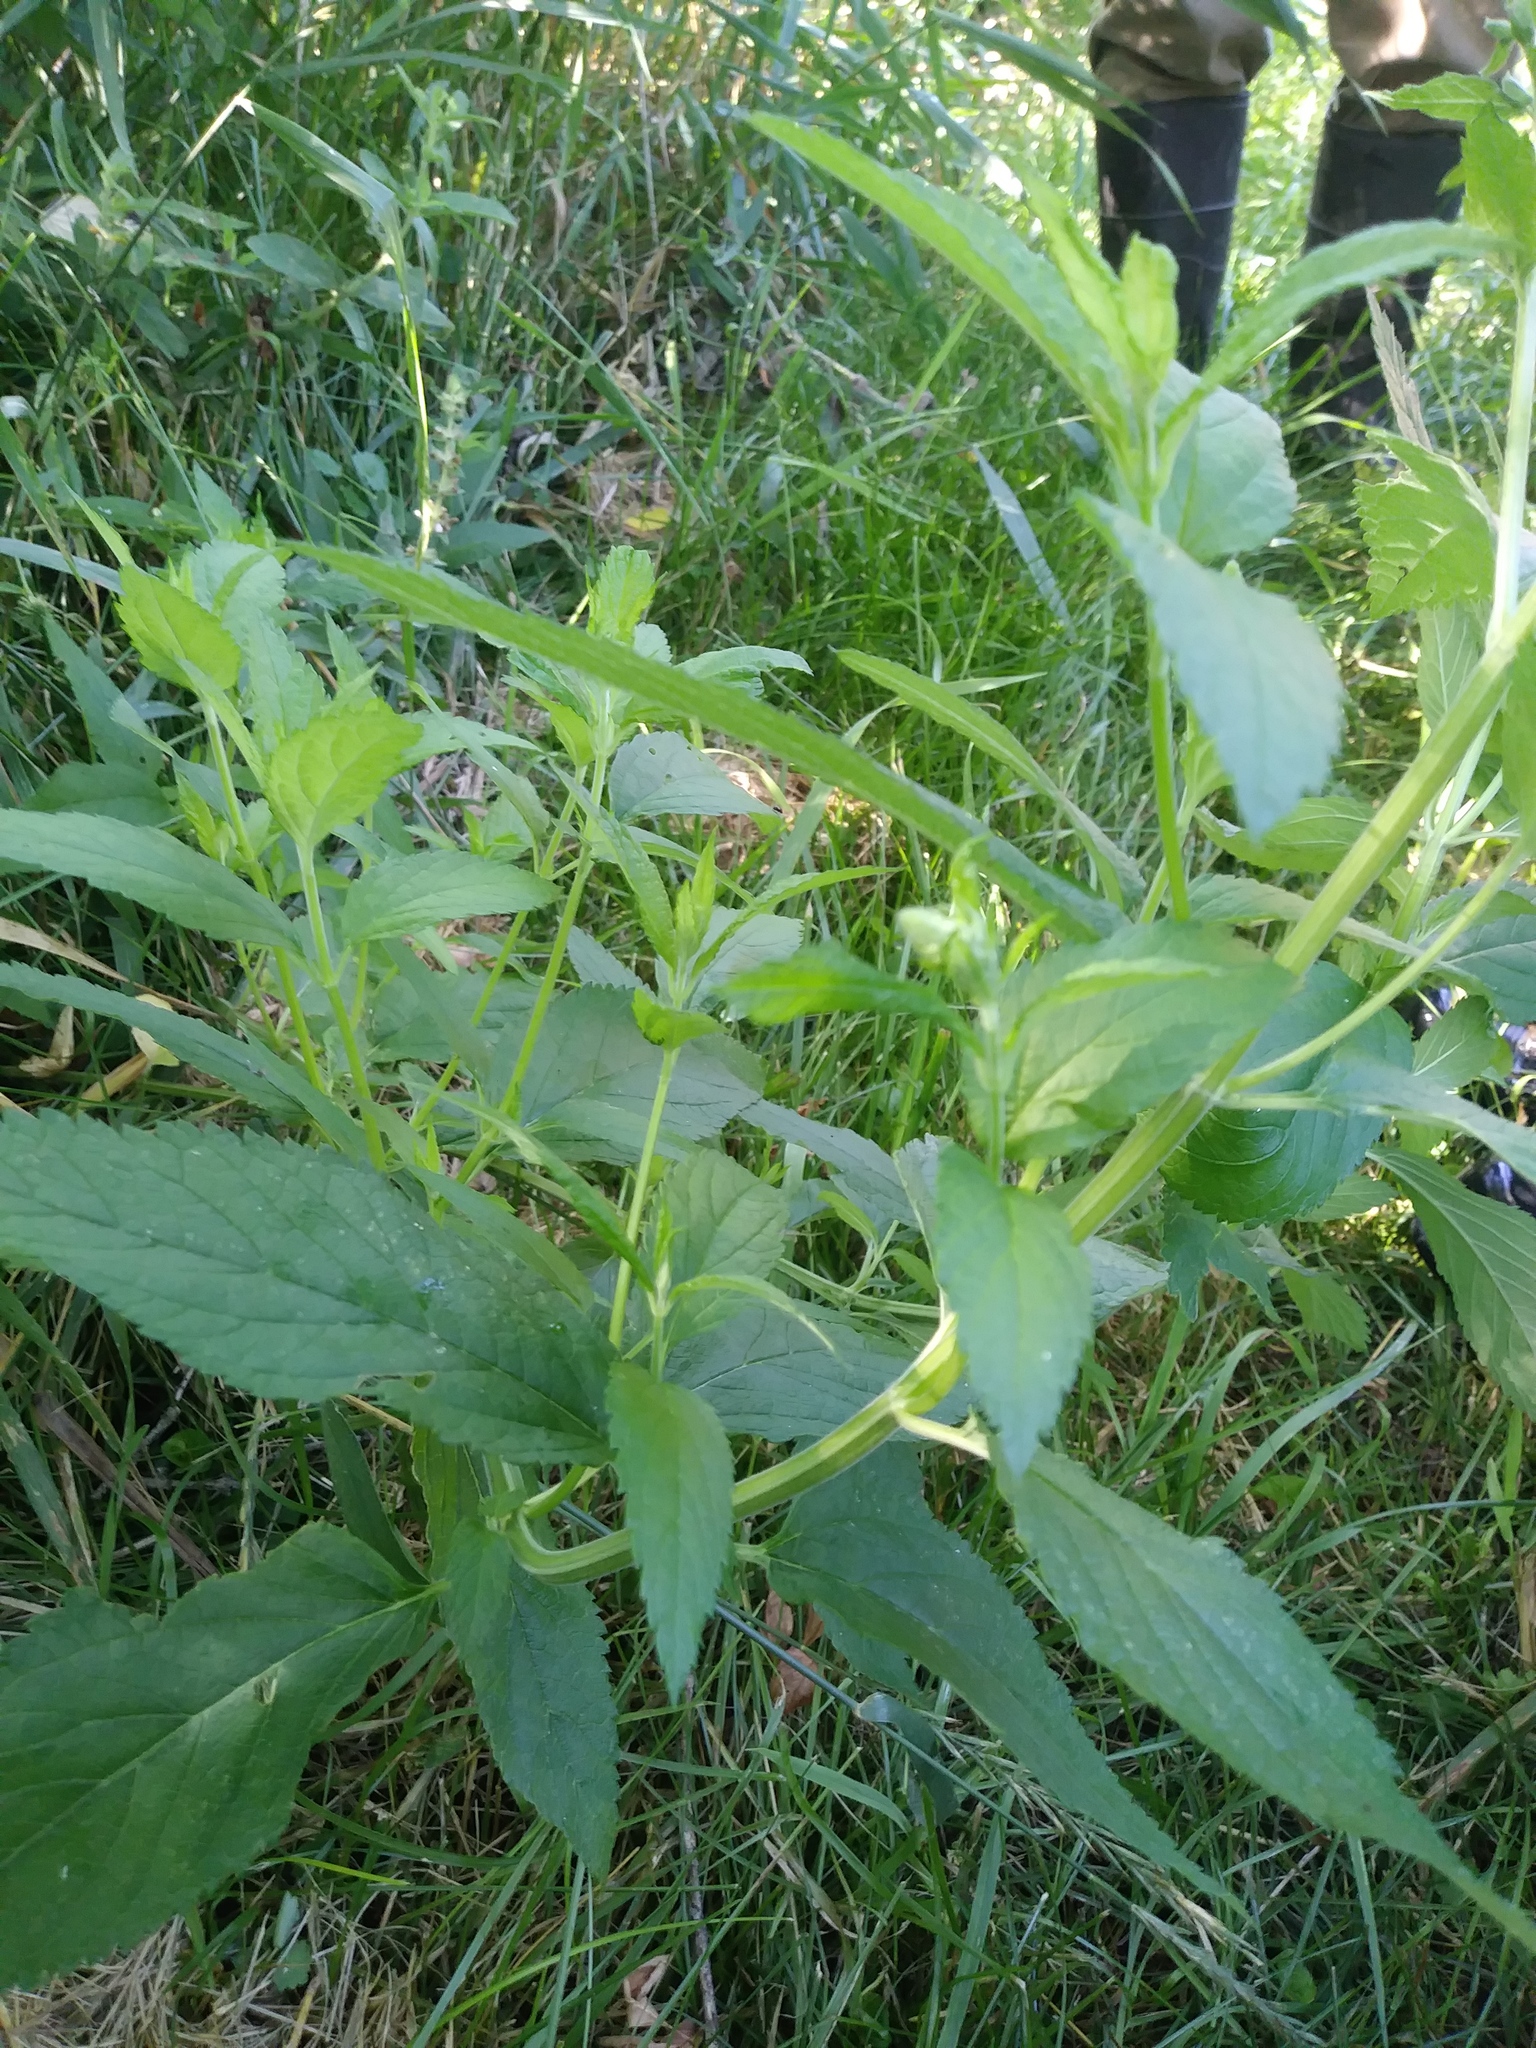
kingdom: Plantae
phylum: Tracheophyta
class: Magnoliopsida
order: Lamiales
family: Lamiaceae
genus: Teucrium
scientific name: Teucrium canadense
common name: American germander
